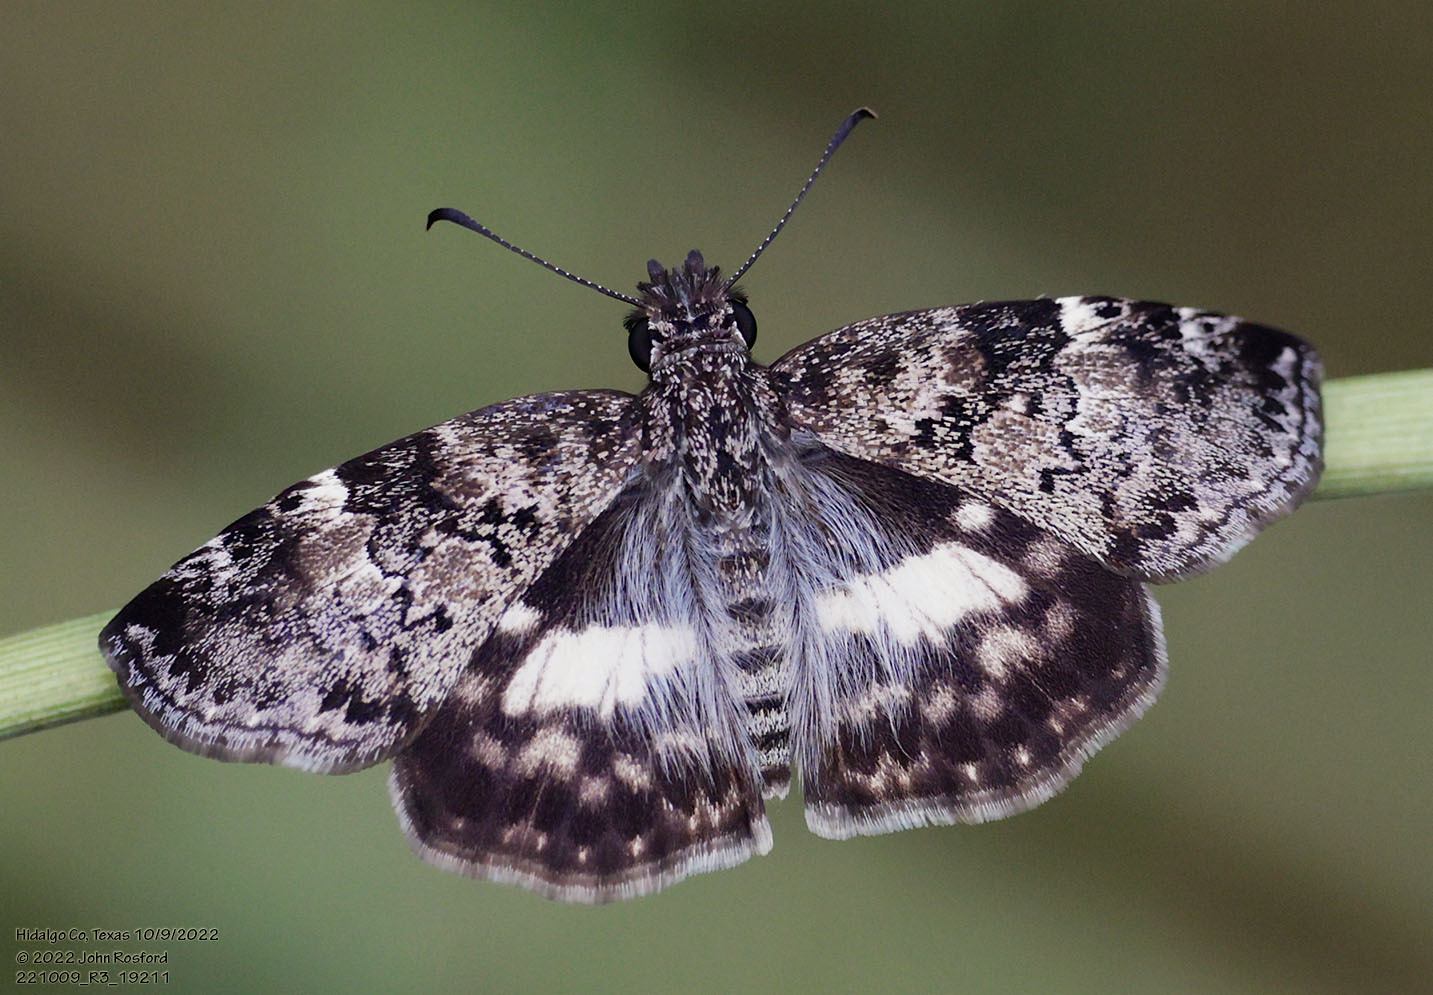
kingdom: Animalia
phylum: Arthropoda
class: Insecta
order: Lepidoptera
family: Hesperiidae
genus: Chiothion
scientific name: Chiothion georgina
